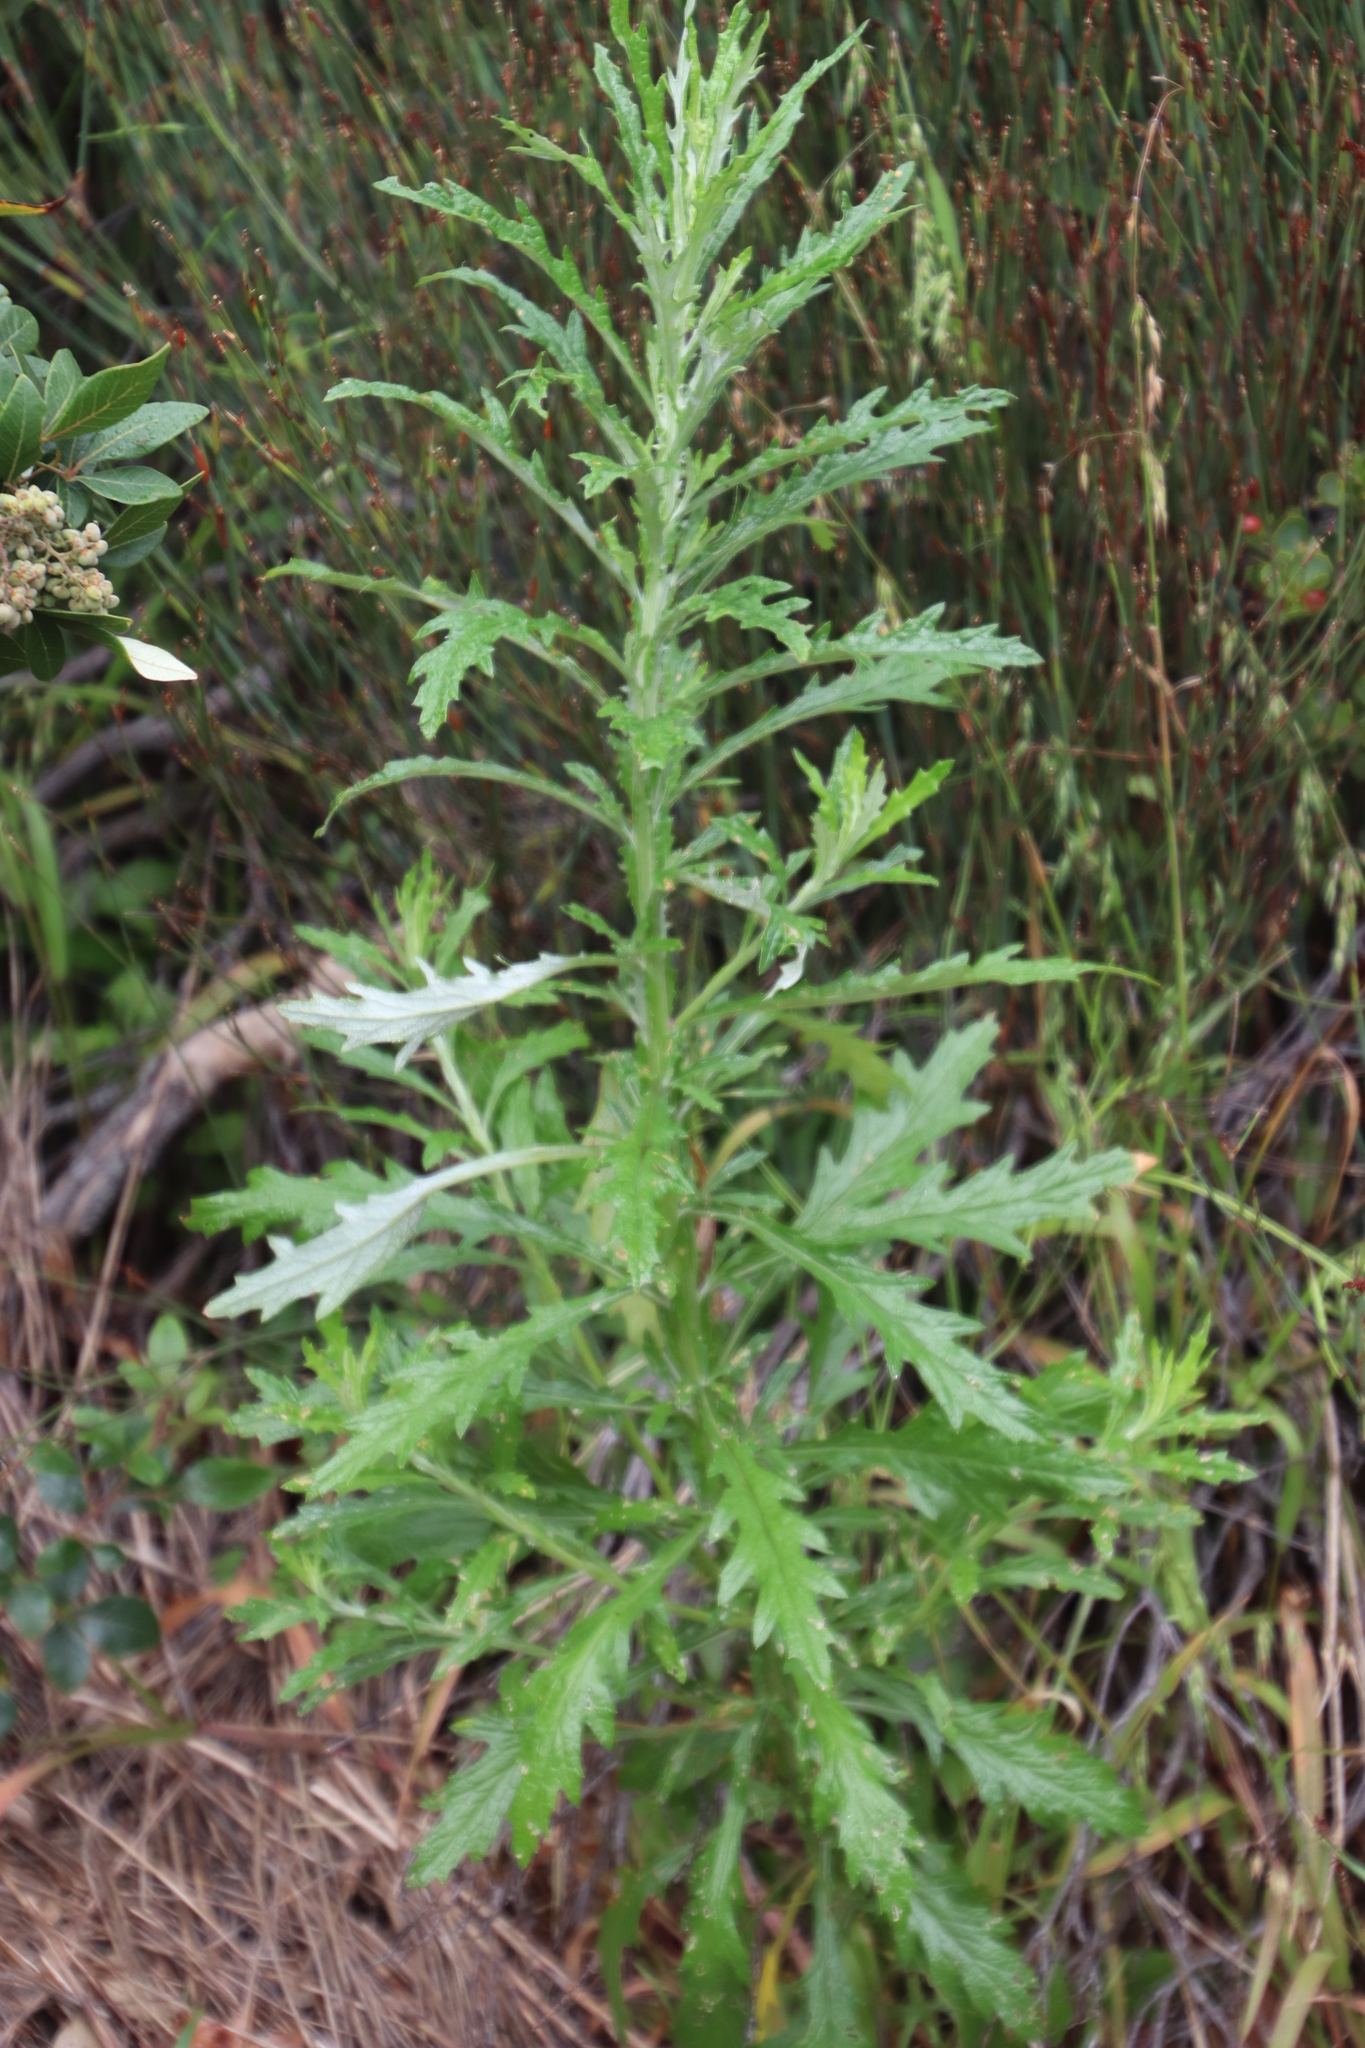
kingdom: Plantae
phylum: Tracheophyta
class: Magnoliopsida
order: Asterales
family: Asteraceae
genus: Senecio
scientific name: Senecio pterophorus
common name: Shoddy ragwort
